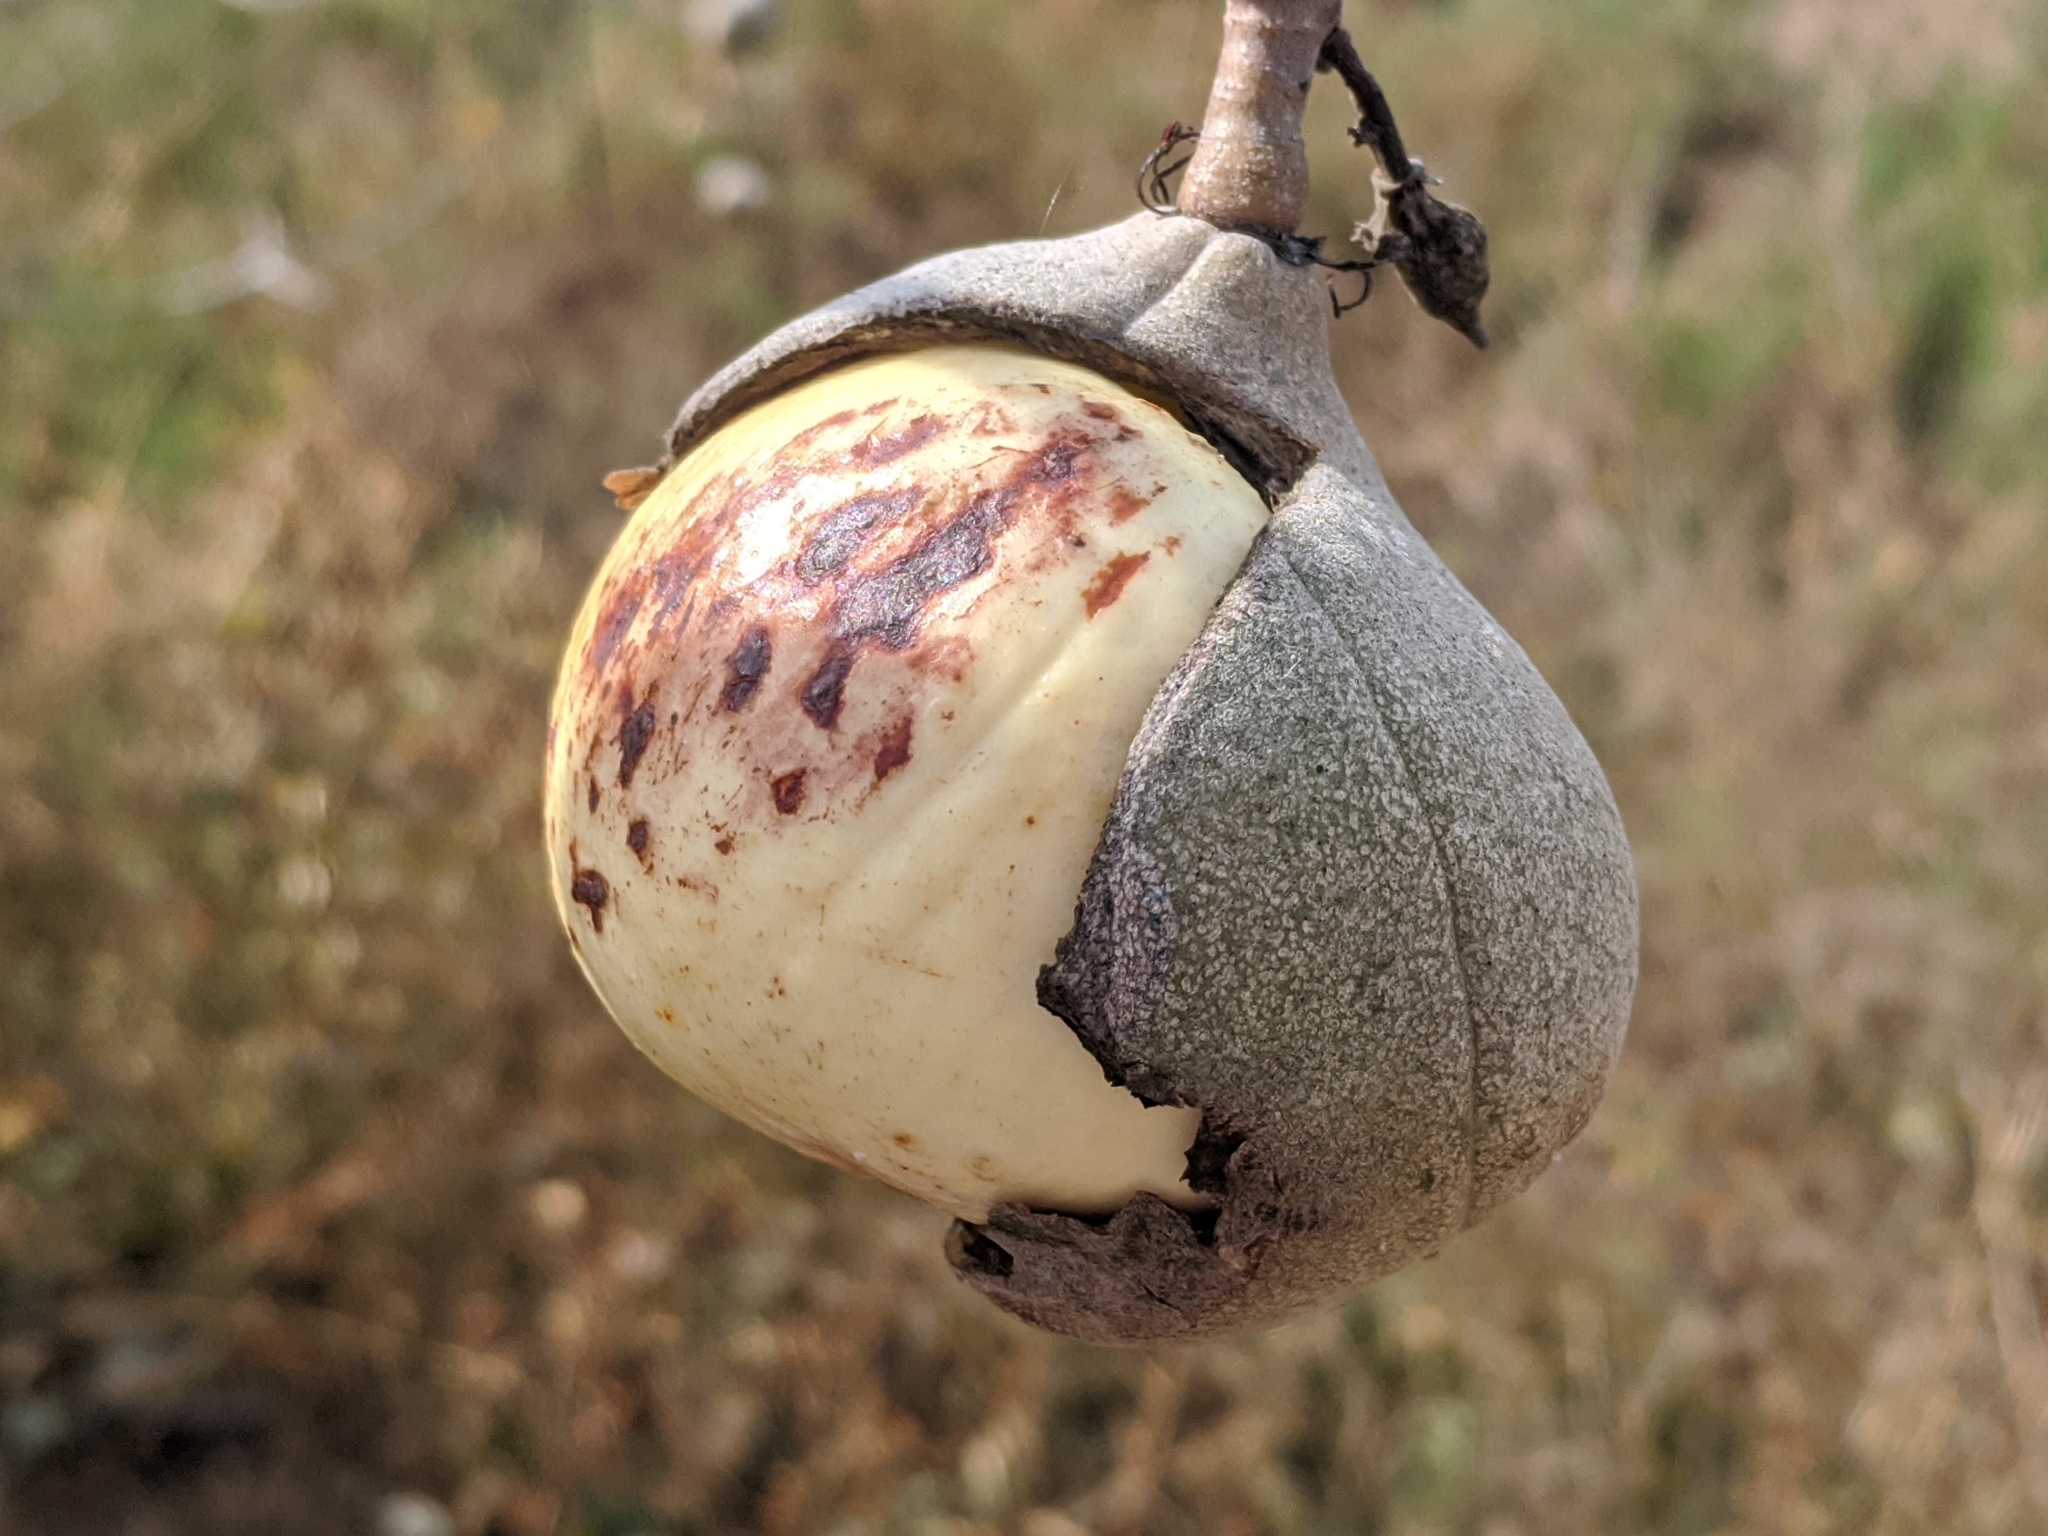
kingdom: Plantae
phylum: Tracheophyta
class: Magnoliopsida
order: Sapindales
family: Sapindaceae
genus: Aesculus
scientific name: Aesculus californica
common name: California buckeye
